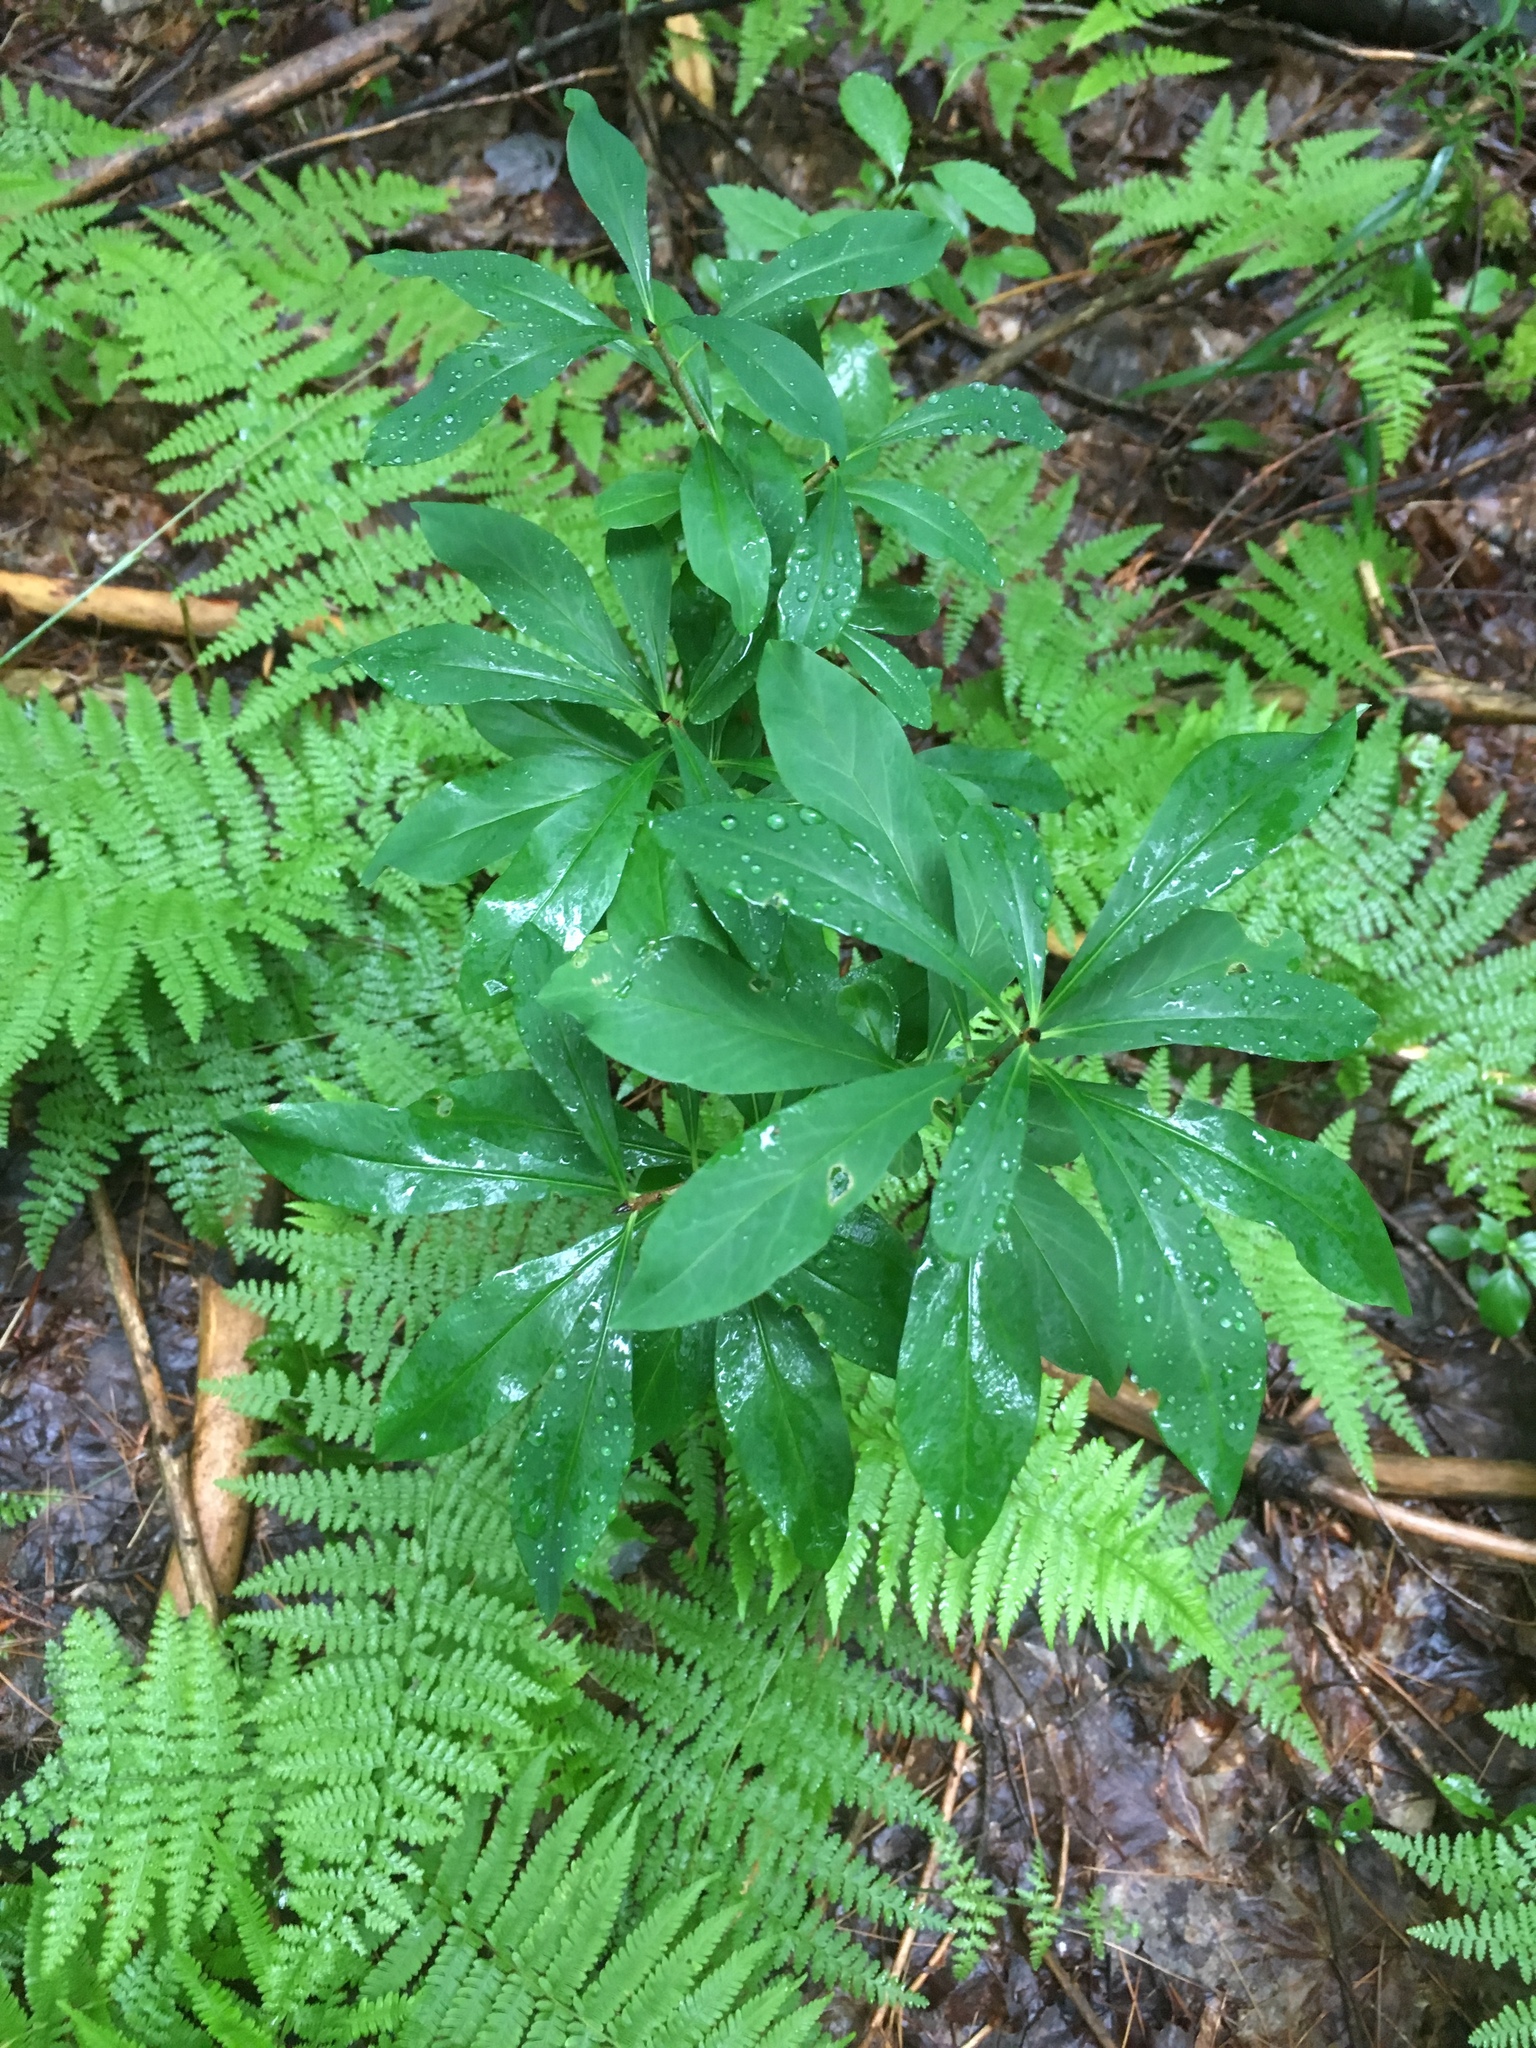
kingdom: Plantae
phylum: Tracheophyta
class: Magnoliopsida
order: Malvales
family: Thymelaeaceae
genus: Daphne
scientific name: Daphne mezereum
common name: Mezereon
